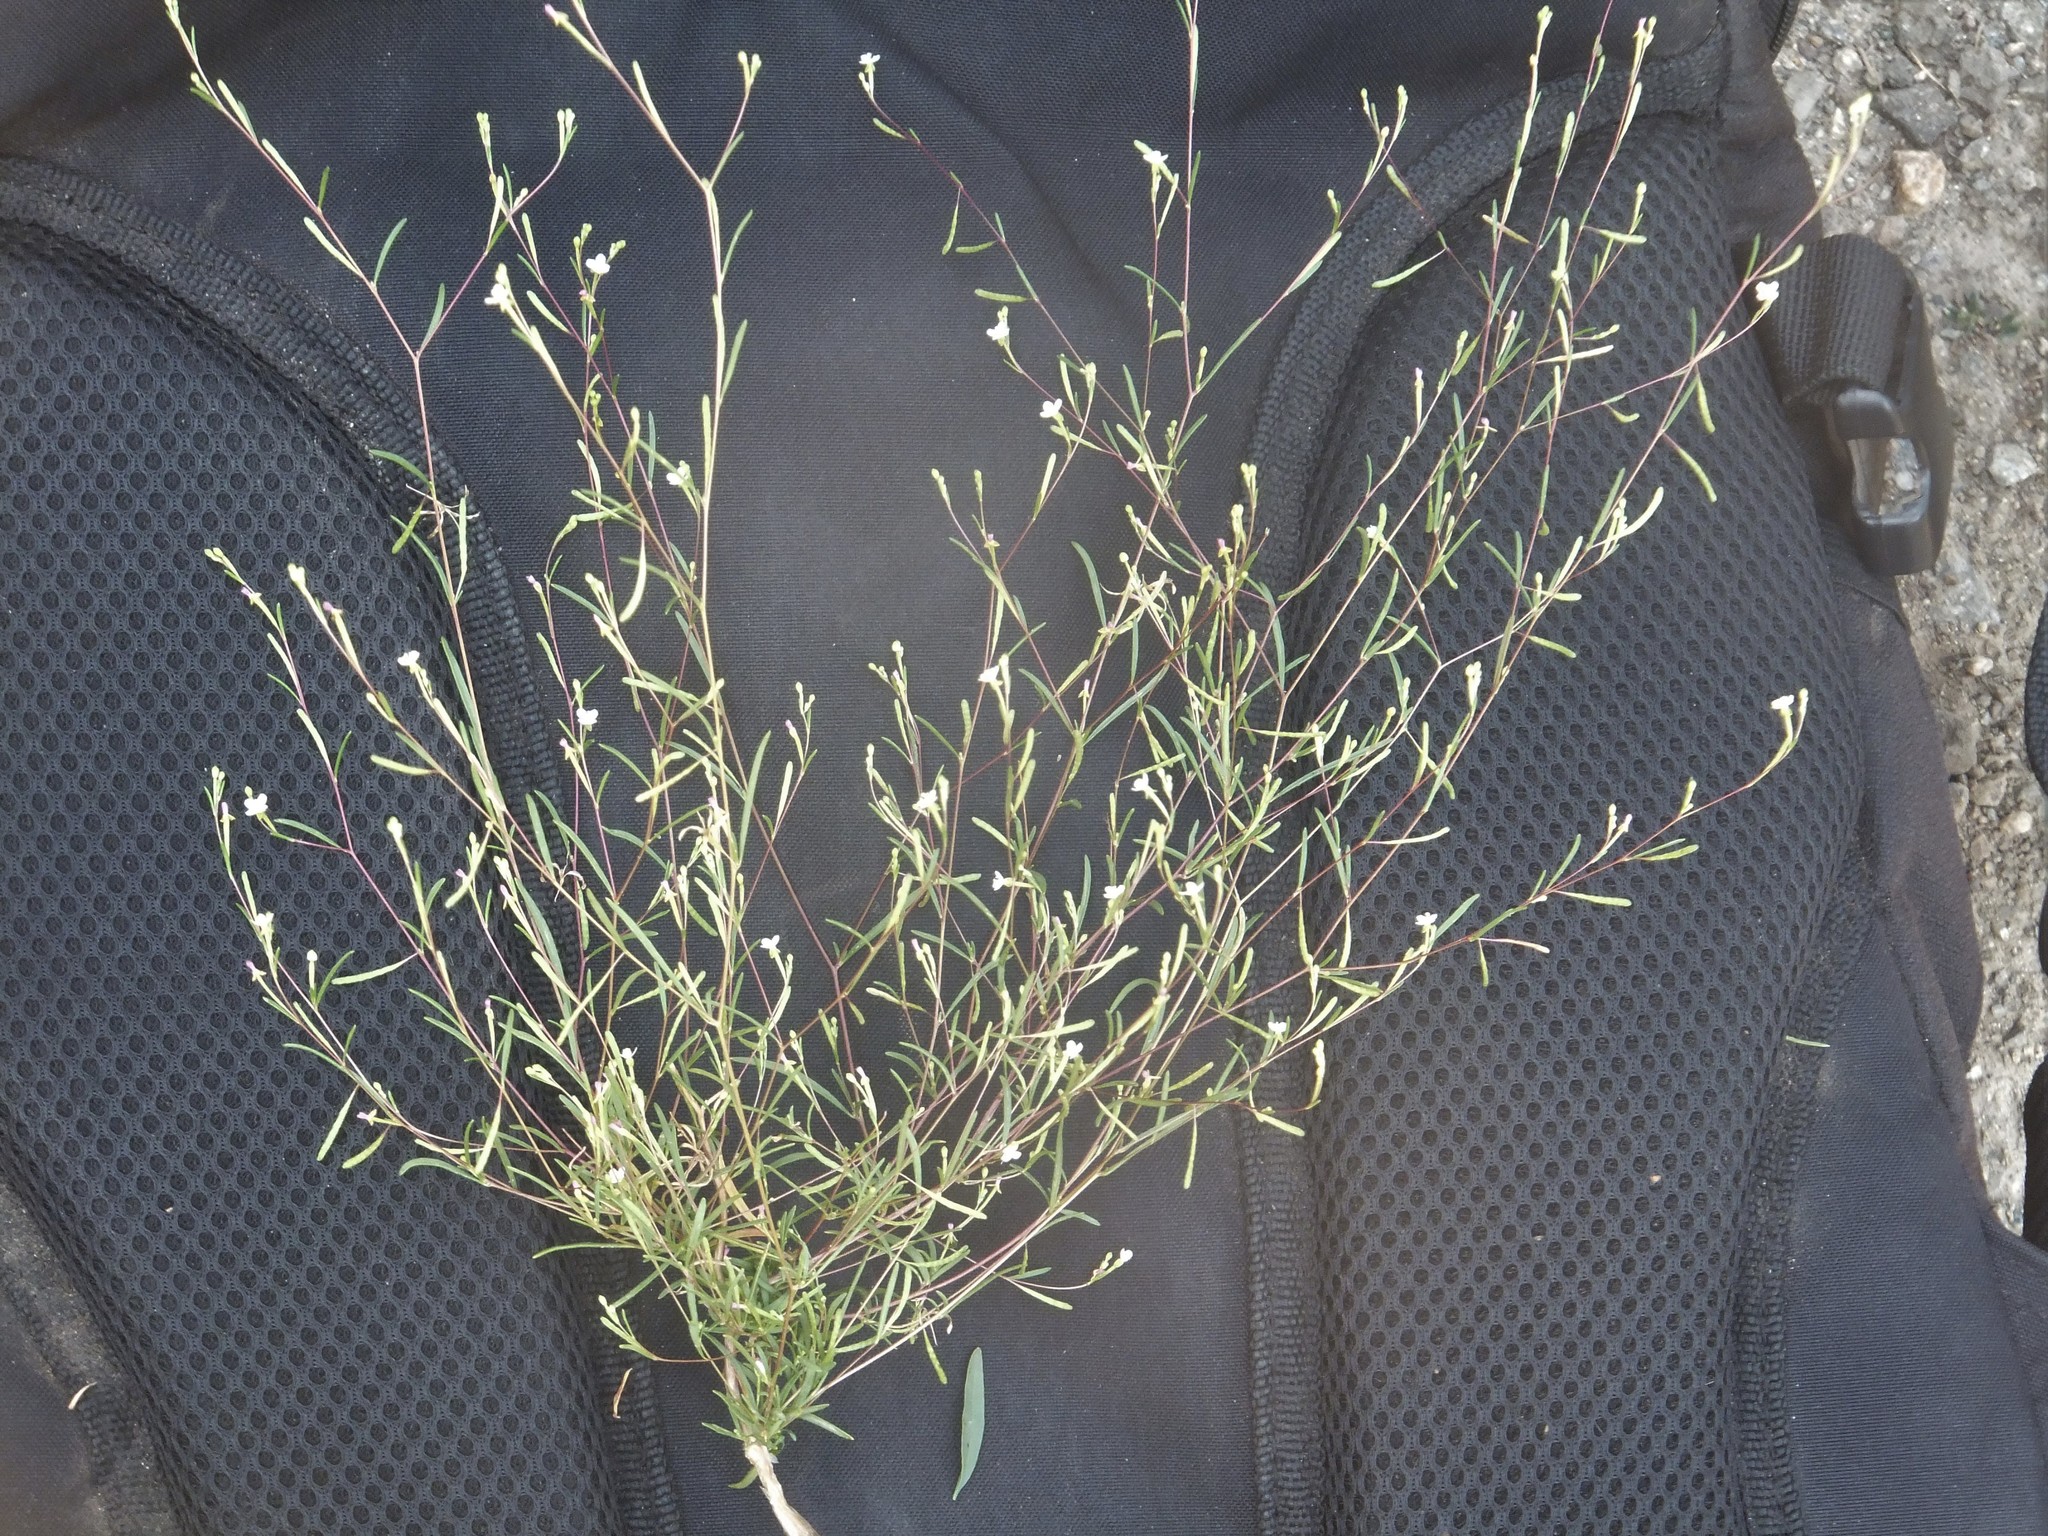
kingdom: Plantae
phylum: Tracheophyta
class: Magnoliopsida
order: Myrtales
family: Onagraceae
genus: Gayophytum
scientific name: Gayophytum ramosissimum
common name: Hairstem groundsmoke
